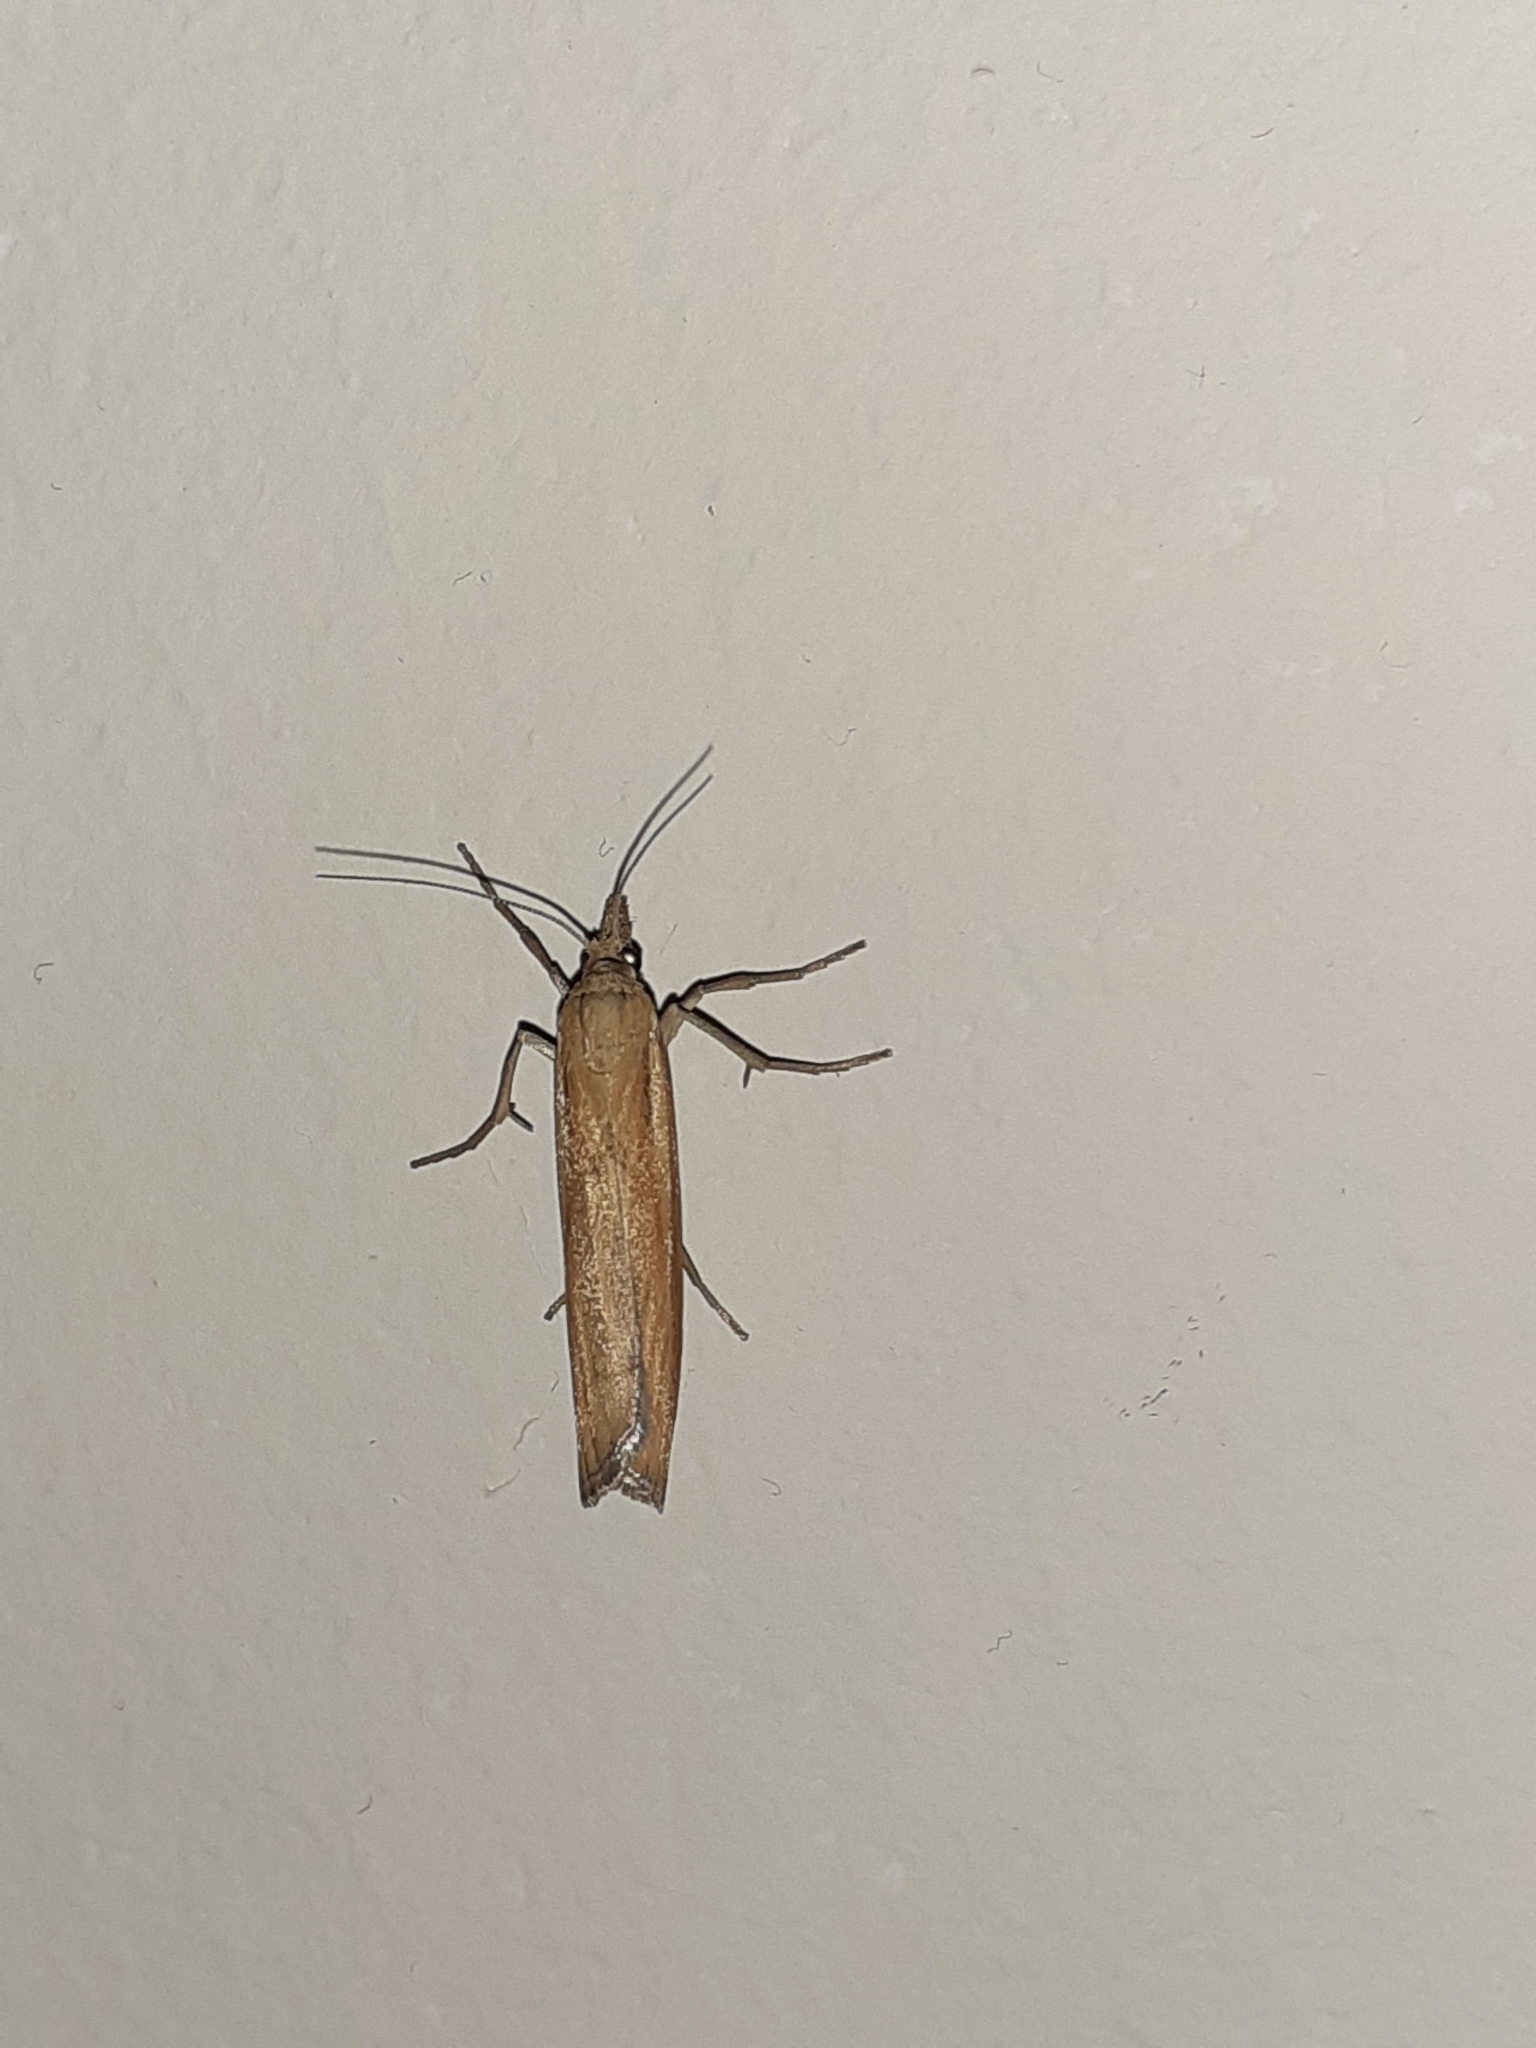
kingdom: Animalia
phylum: Arthropoda
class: Insecta
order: Lepidoptera
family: Crambidae
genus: Agriphila
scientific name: Agriphila tristellus
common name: Common grass-veneer
